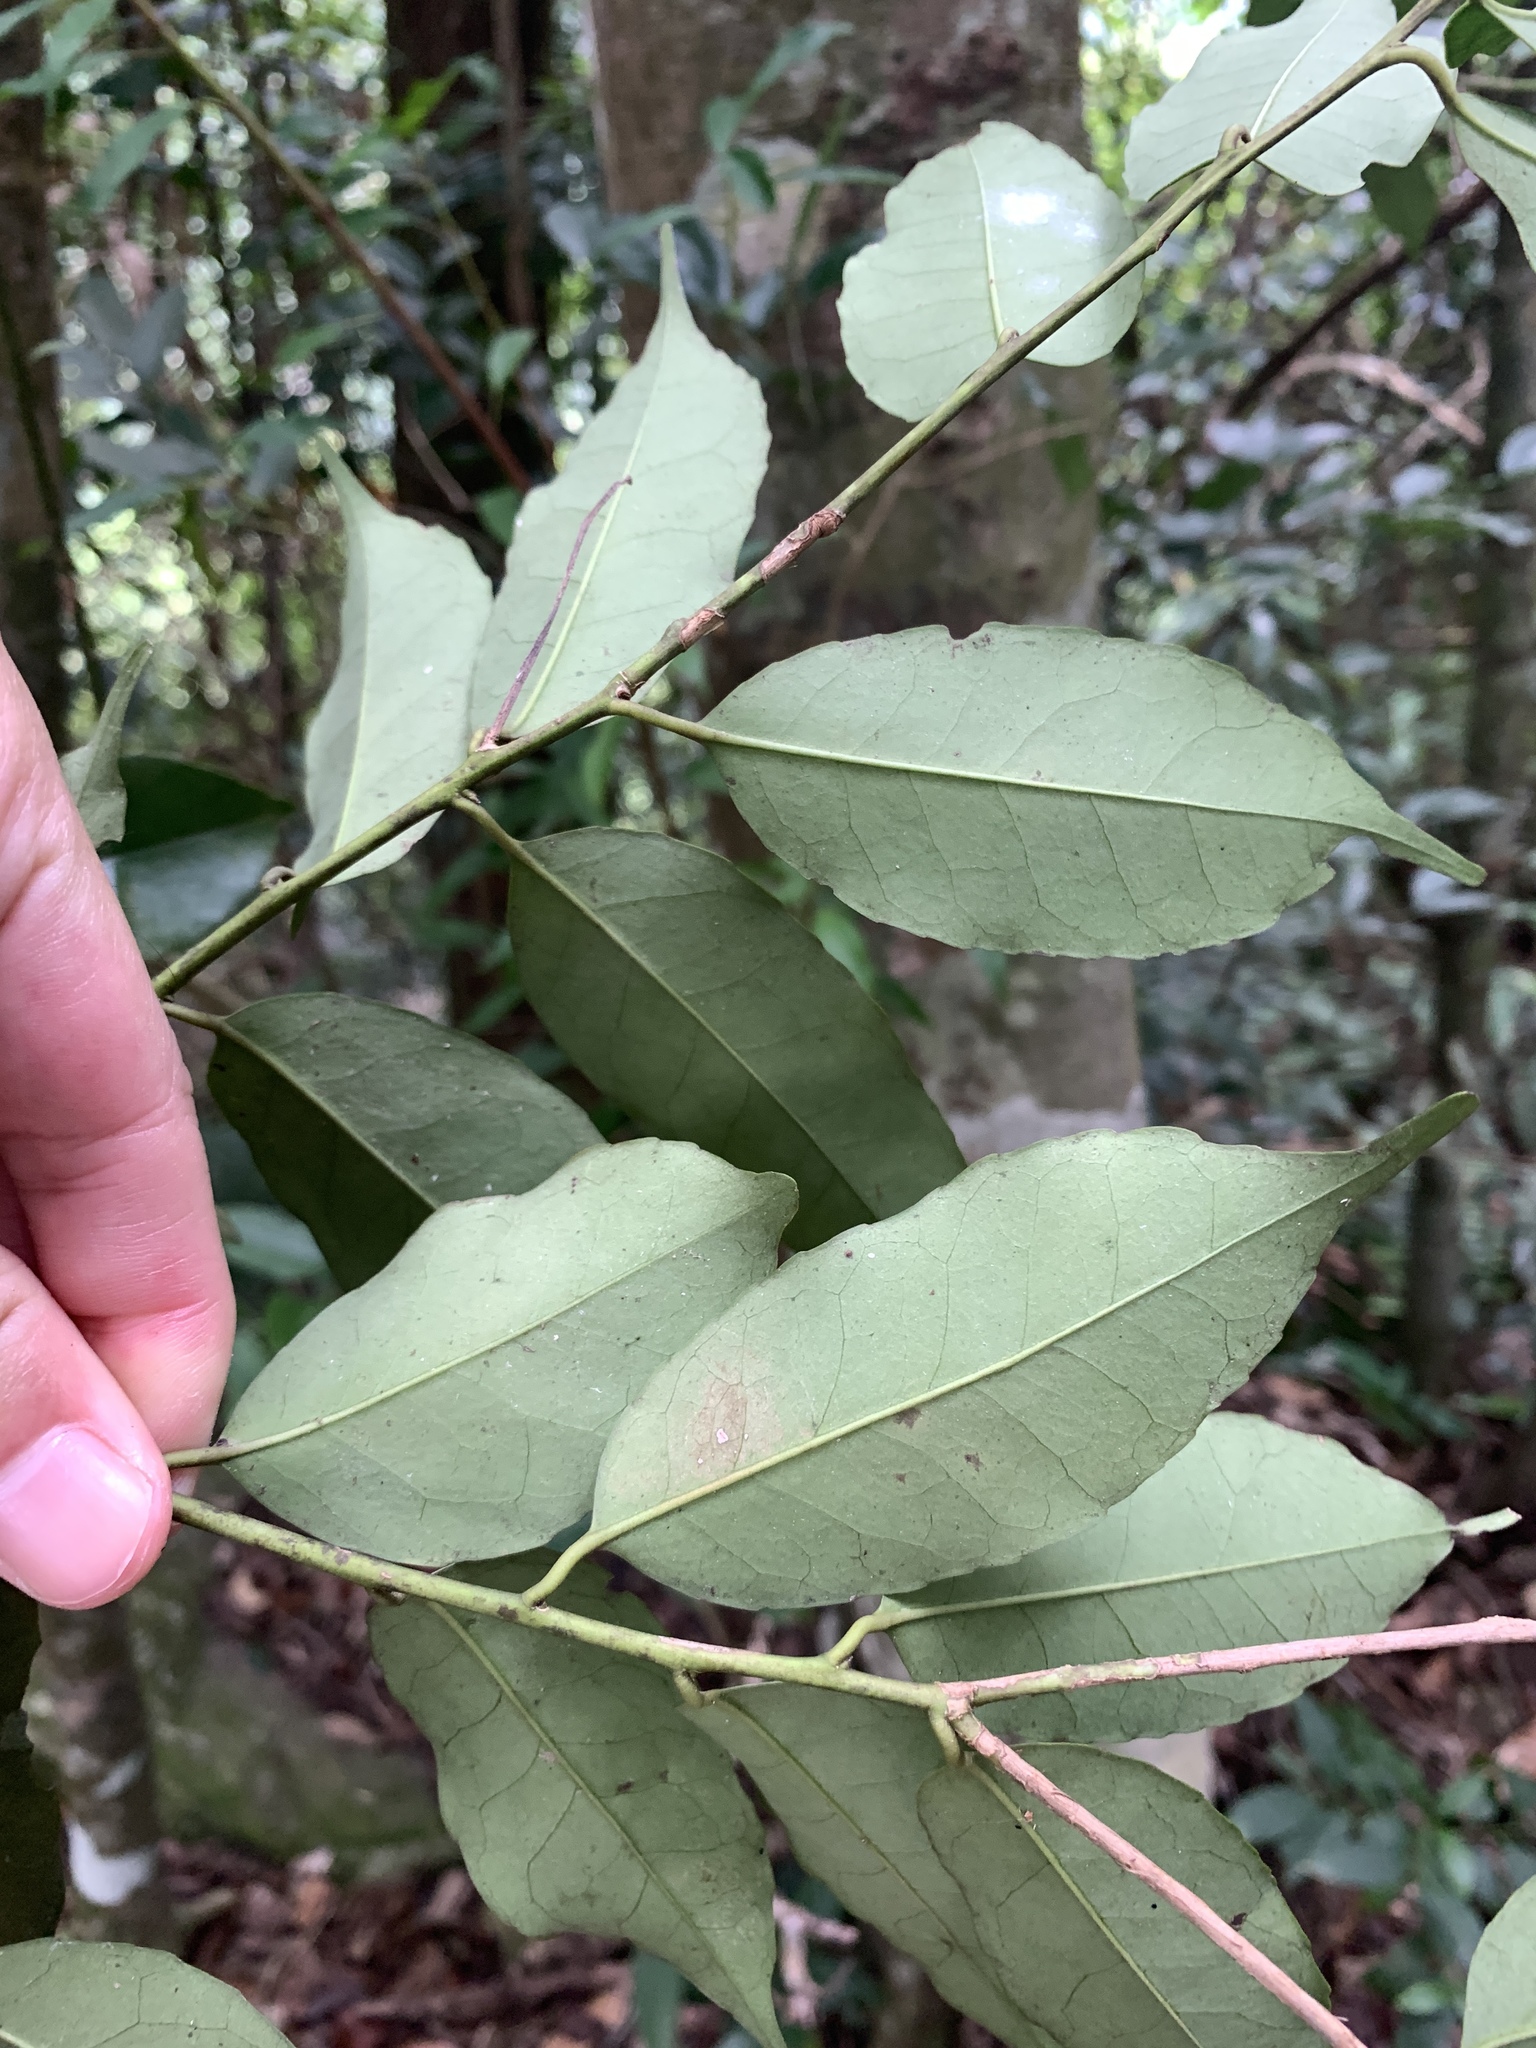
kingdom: Plantae
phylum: Tracheophyta
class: Magnoliopsida
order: Aquifoliales
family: Aquifoliaceae
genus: Ilex
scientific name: Ilex ficoidea
